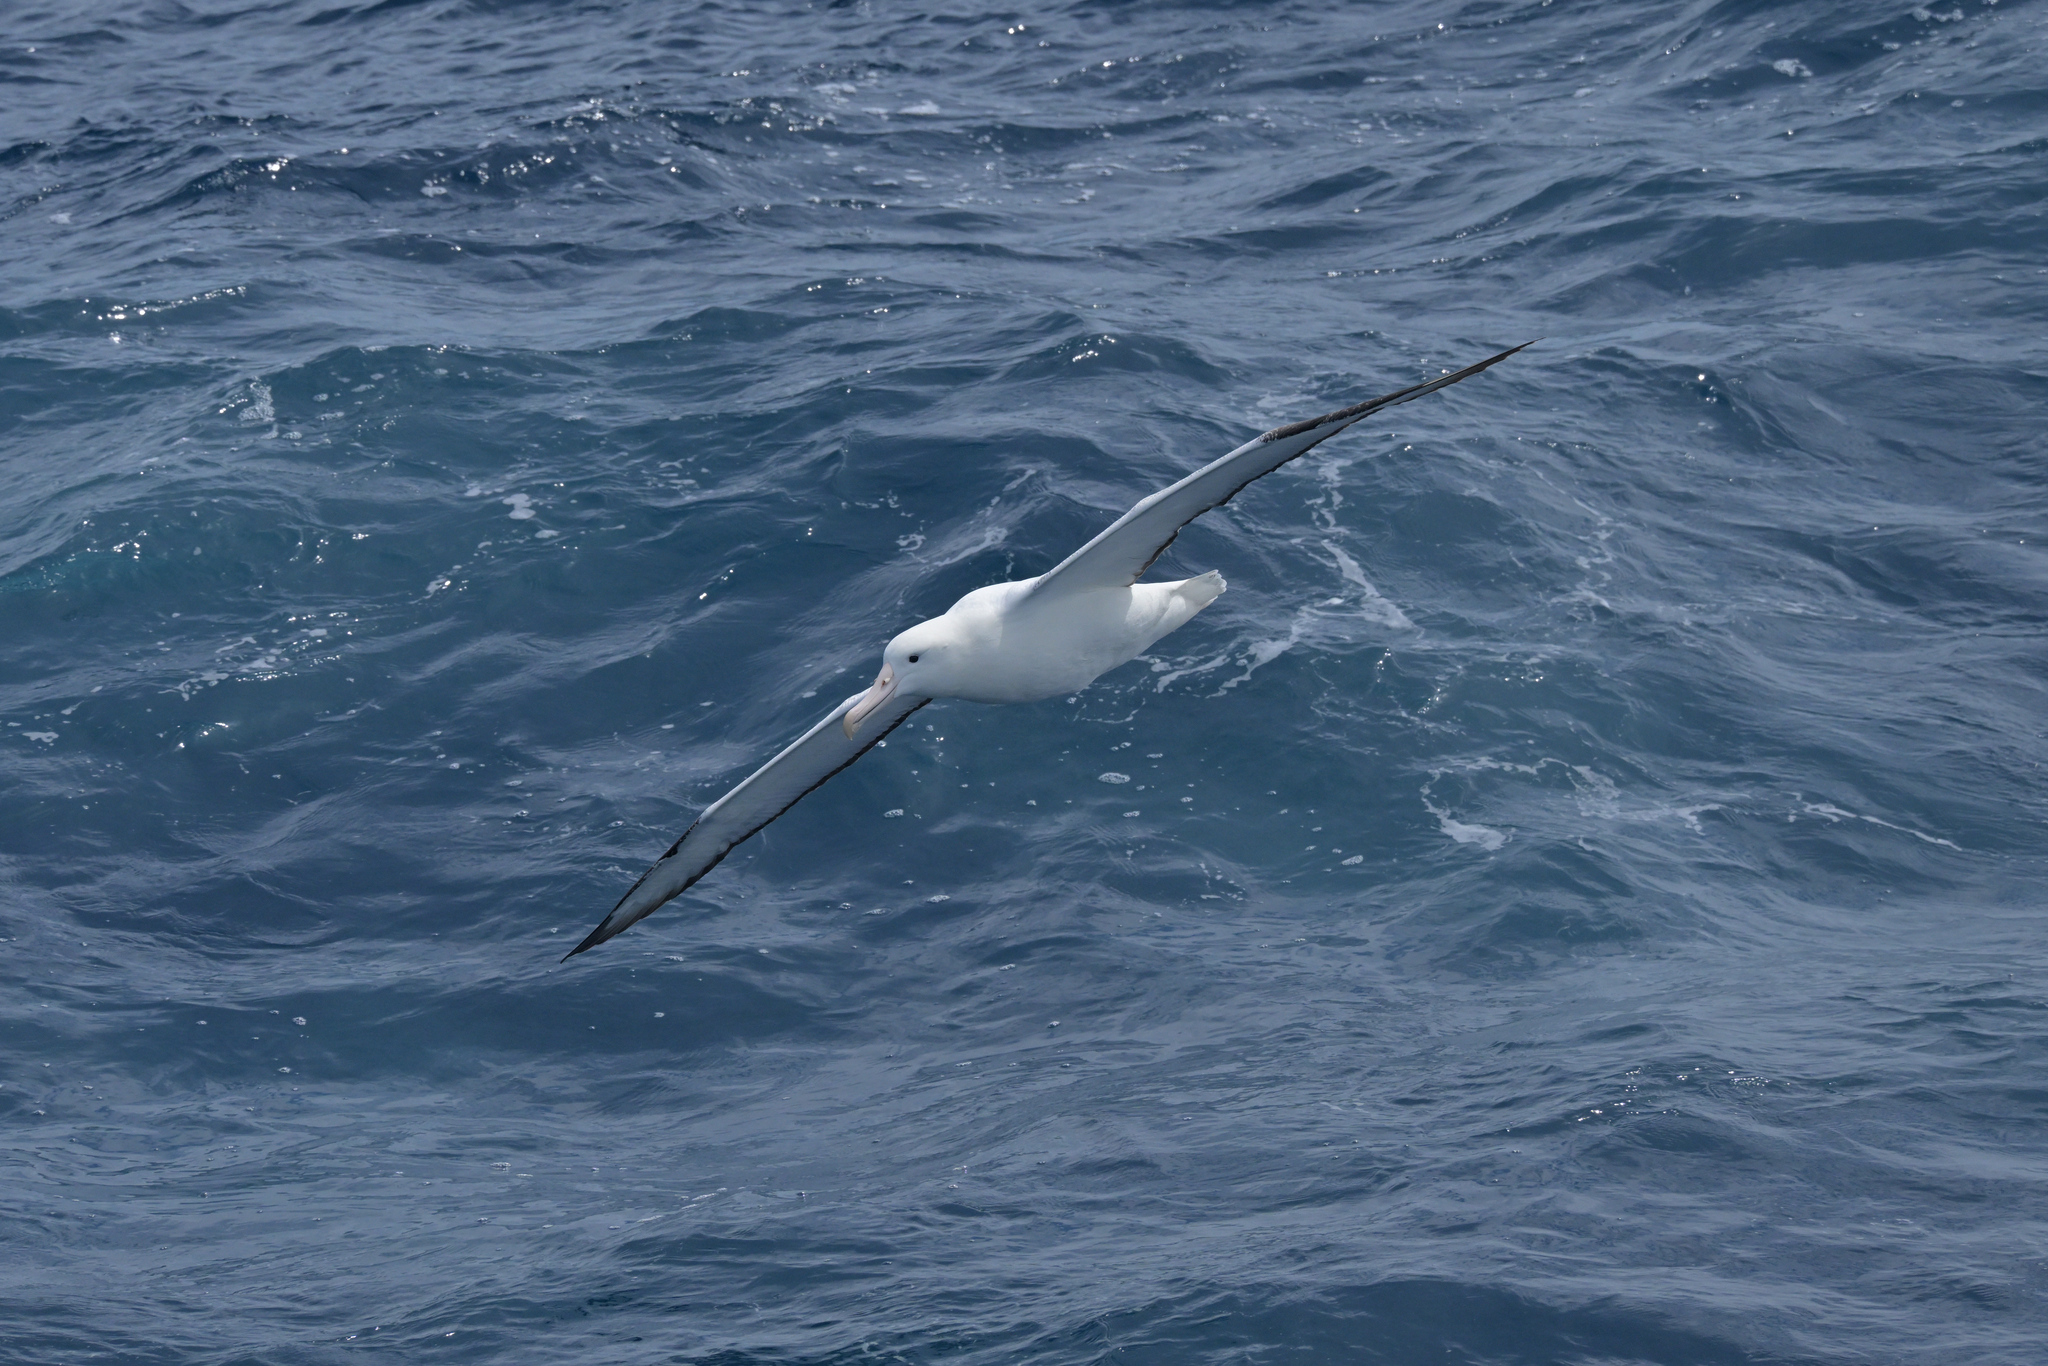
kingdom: Animalia
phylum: Chordata
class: Aves
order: Procellariiformes
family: Diomedeidae
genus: Diomedea
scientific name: Diomedea epomophora
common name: Southern royal albatross
